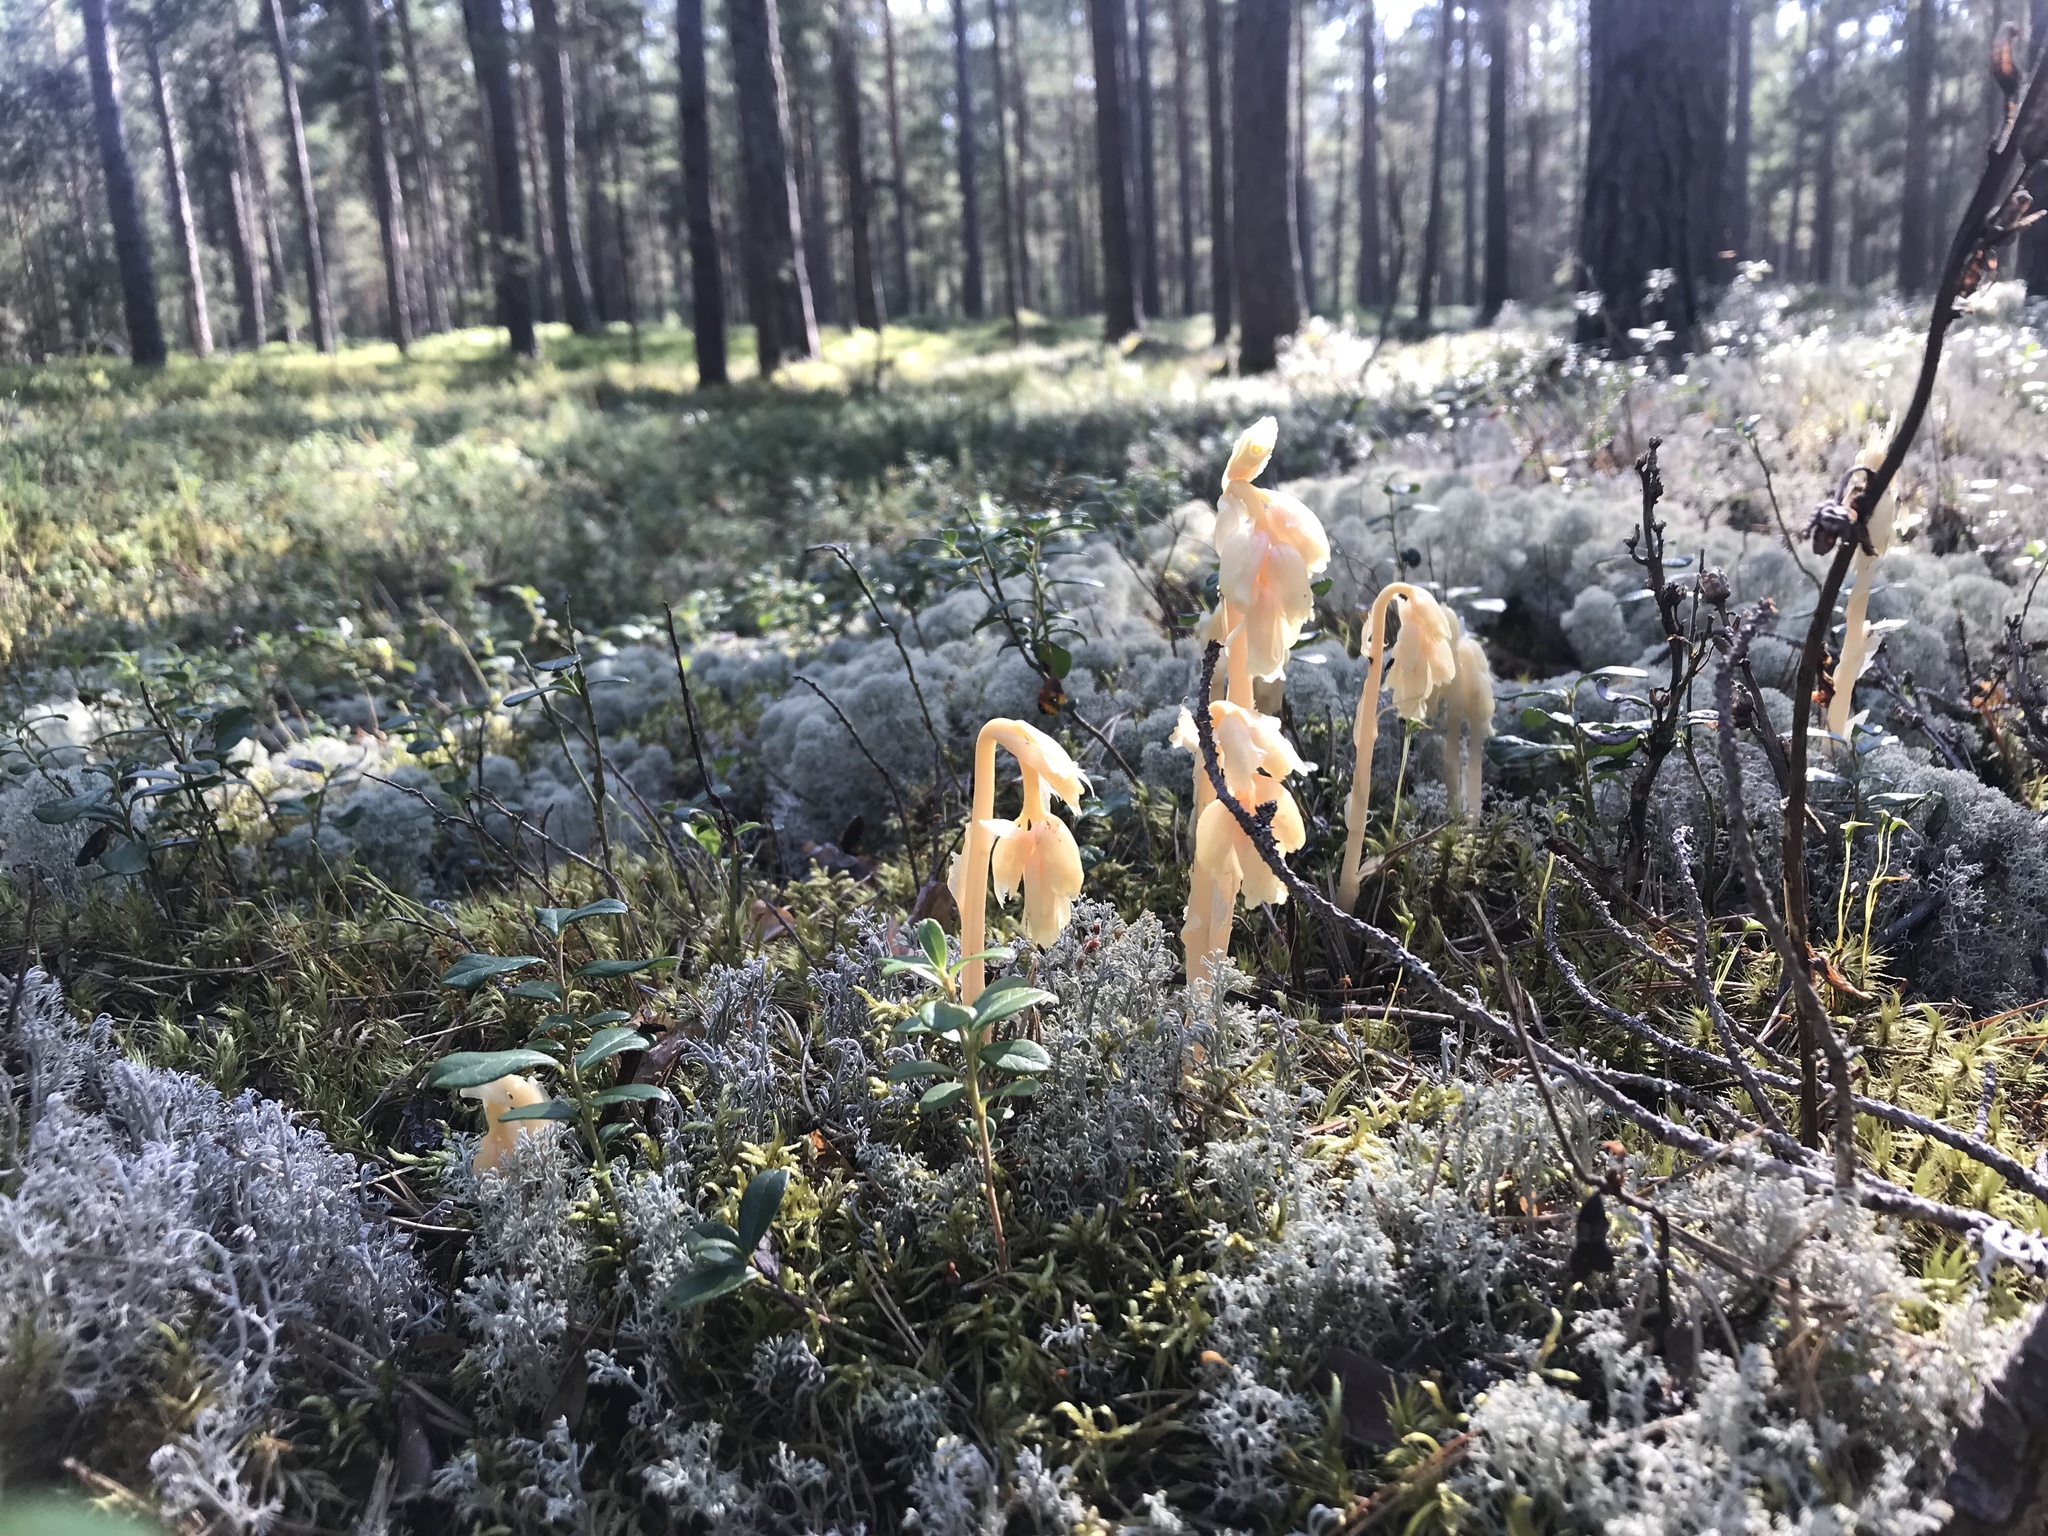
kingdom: Plantae
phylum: Tracheophyta
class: Magnoliopsida
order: Ericales
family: Ericaceae
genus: Hypopitys
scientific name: Hypopitys monotropa
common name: Yellow bird's-nest
